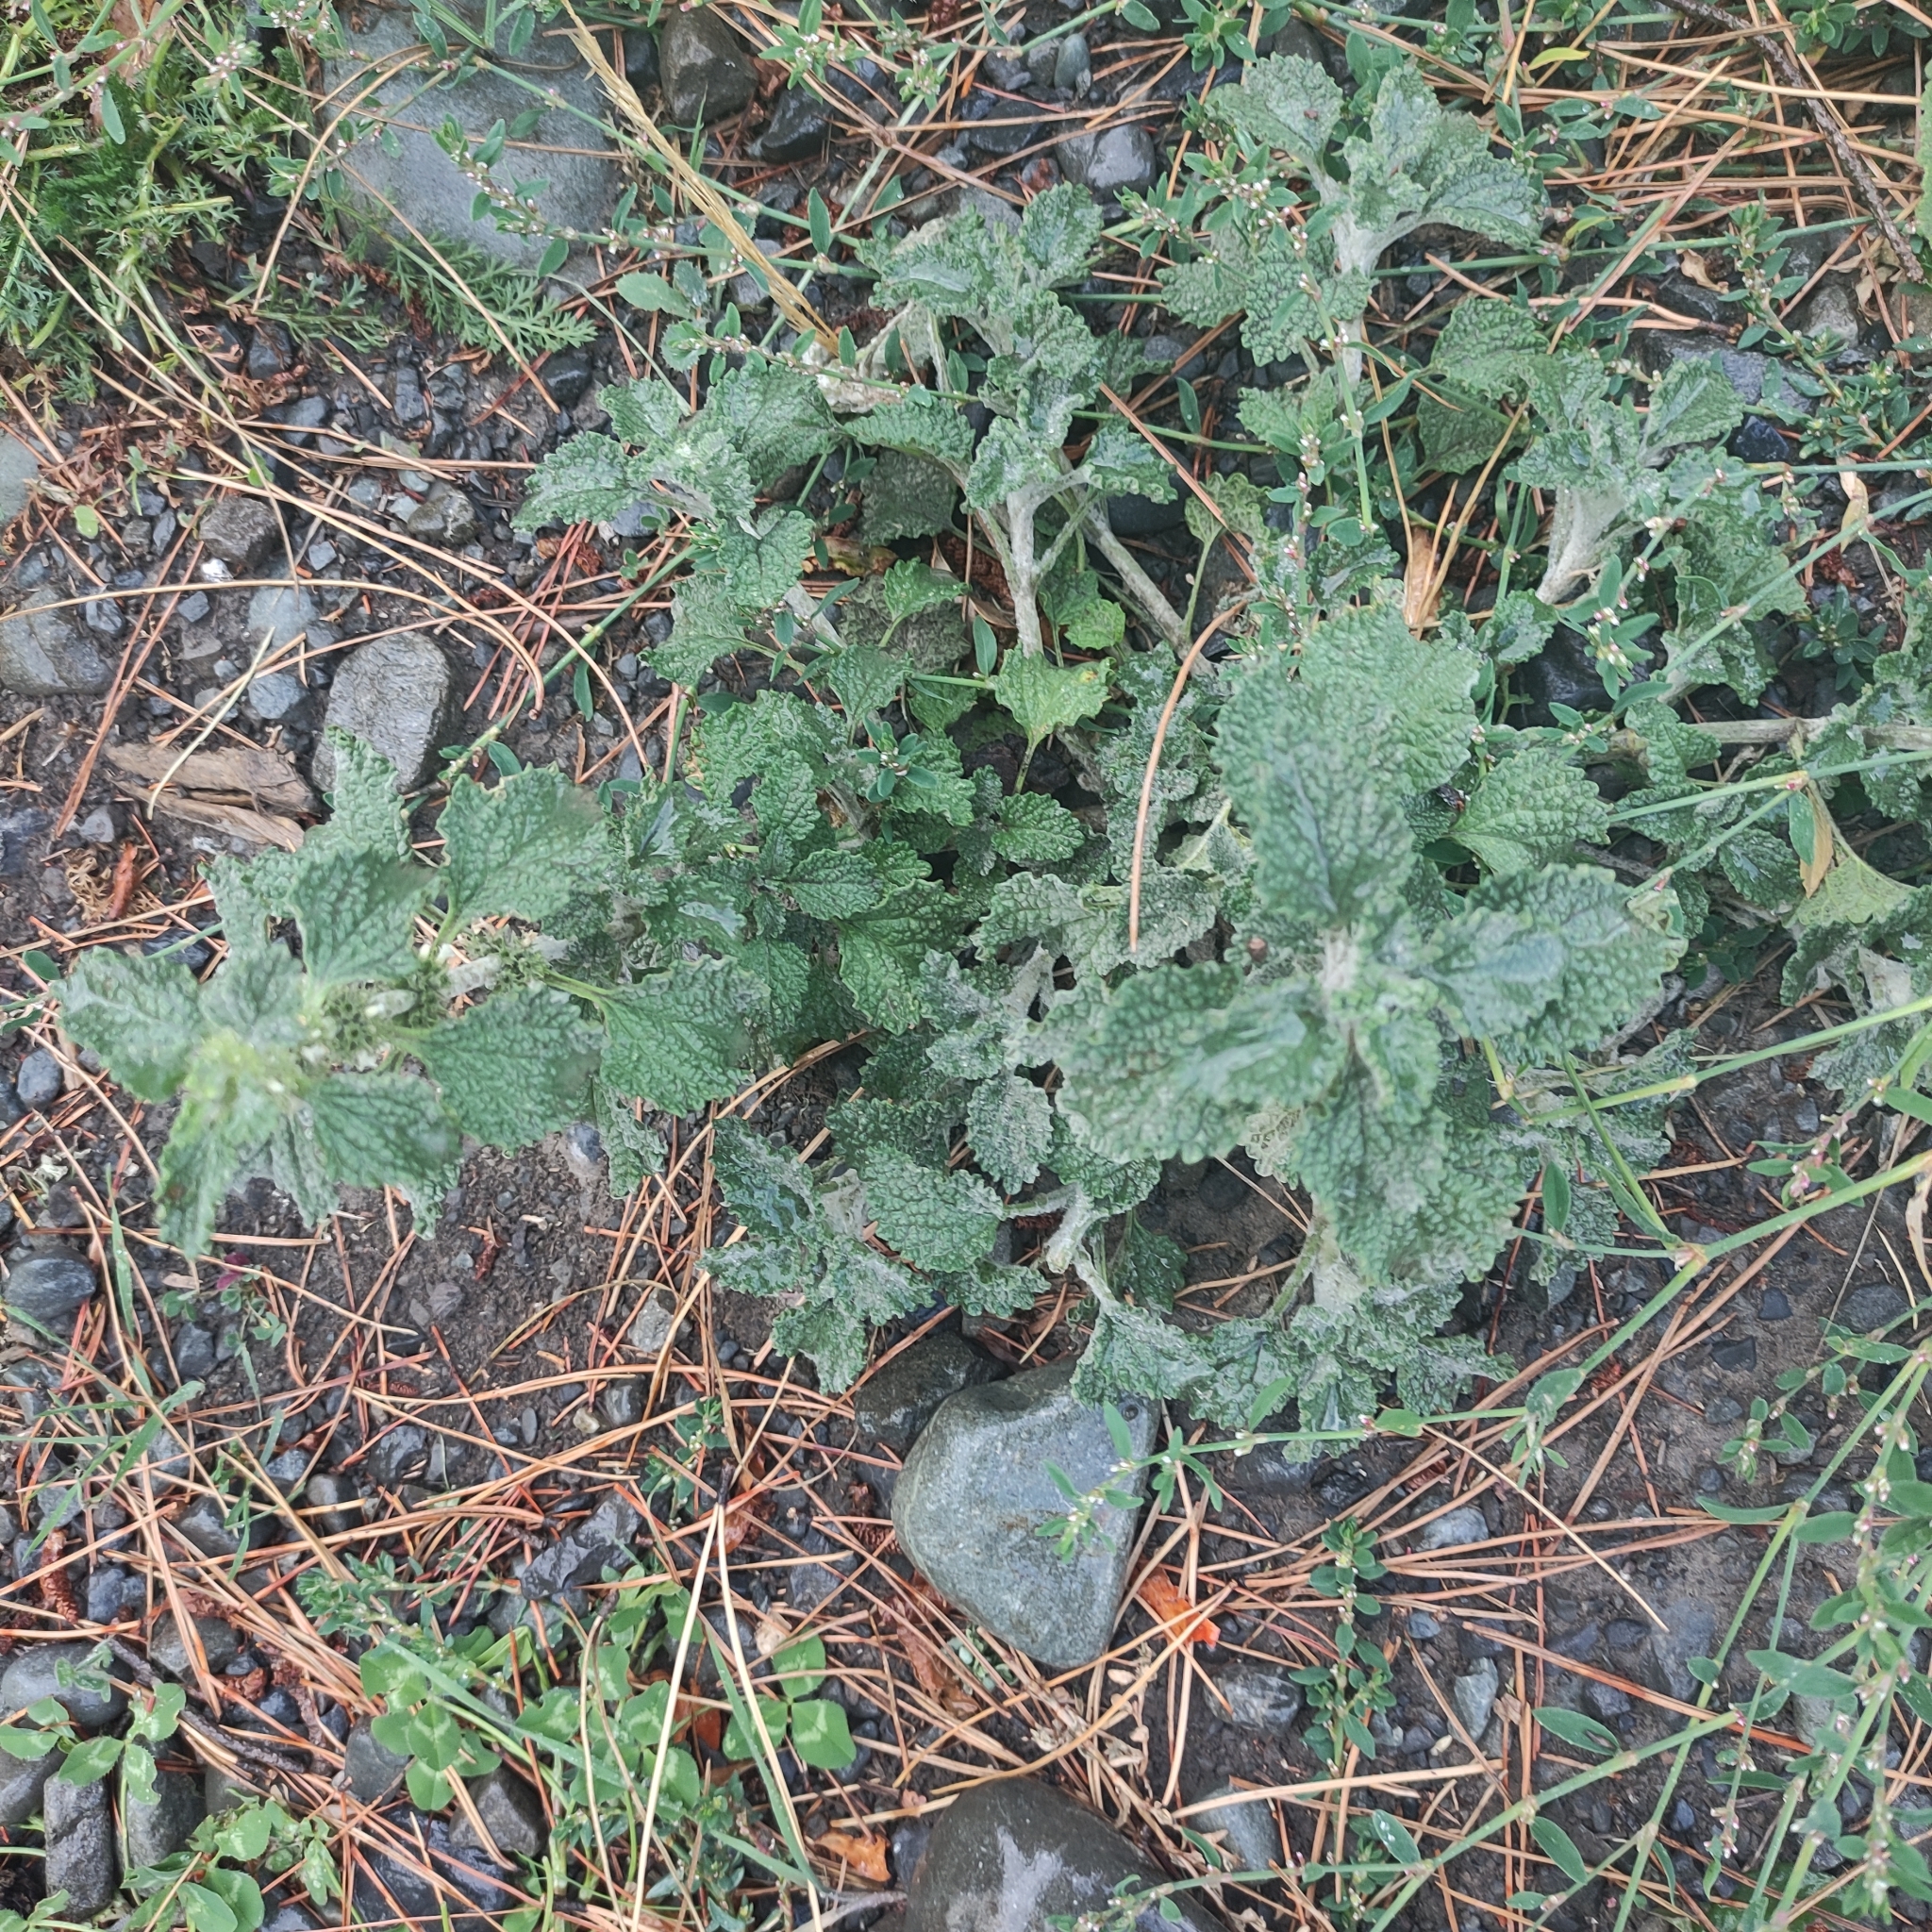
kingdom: Plantae
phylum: Tracheophyta
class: Magnoliopsida
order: Lamiales
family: Lamiaceae
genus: Marrubium
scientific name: Marrubium vulgare
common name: Horehound
